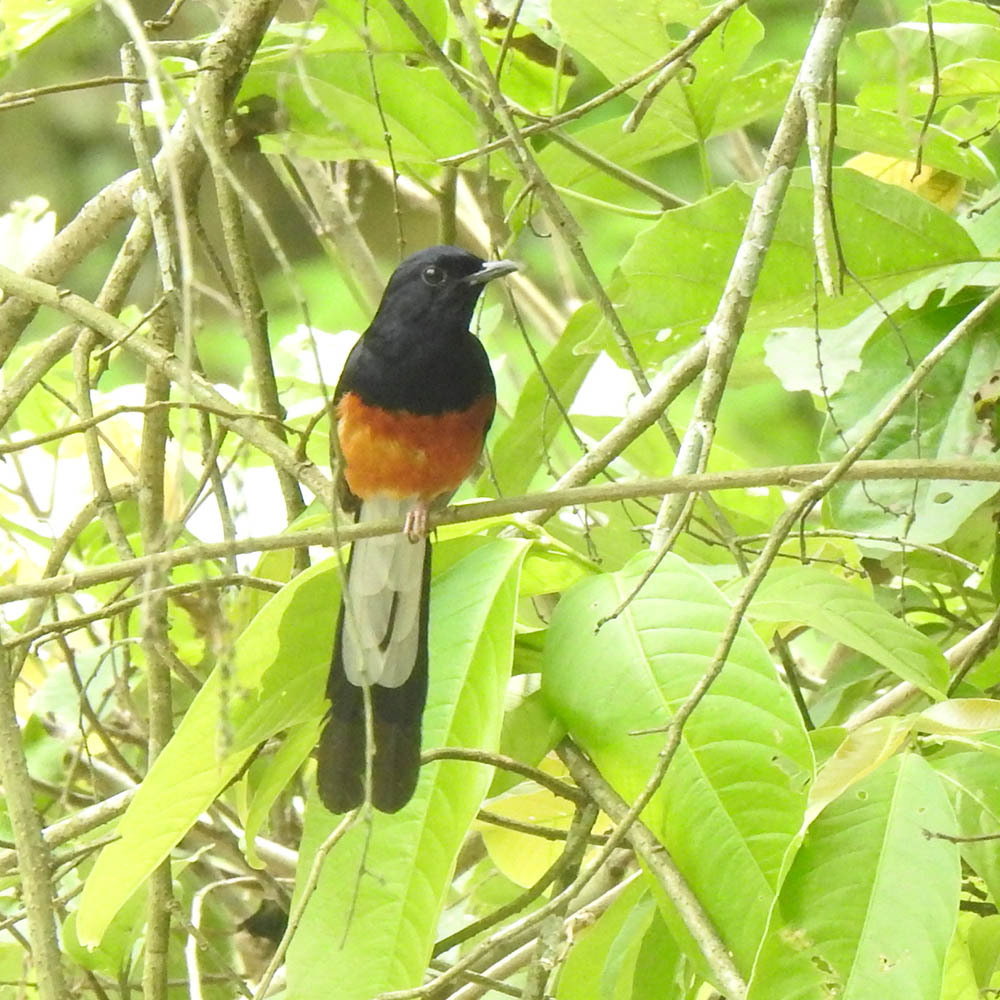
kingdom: Animalia
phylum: Chordata
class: Aves
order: Passeriformes
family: Muscicapidae
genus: Copsychus
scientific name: Copsychus malabaricus
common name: White-rumped shama
